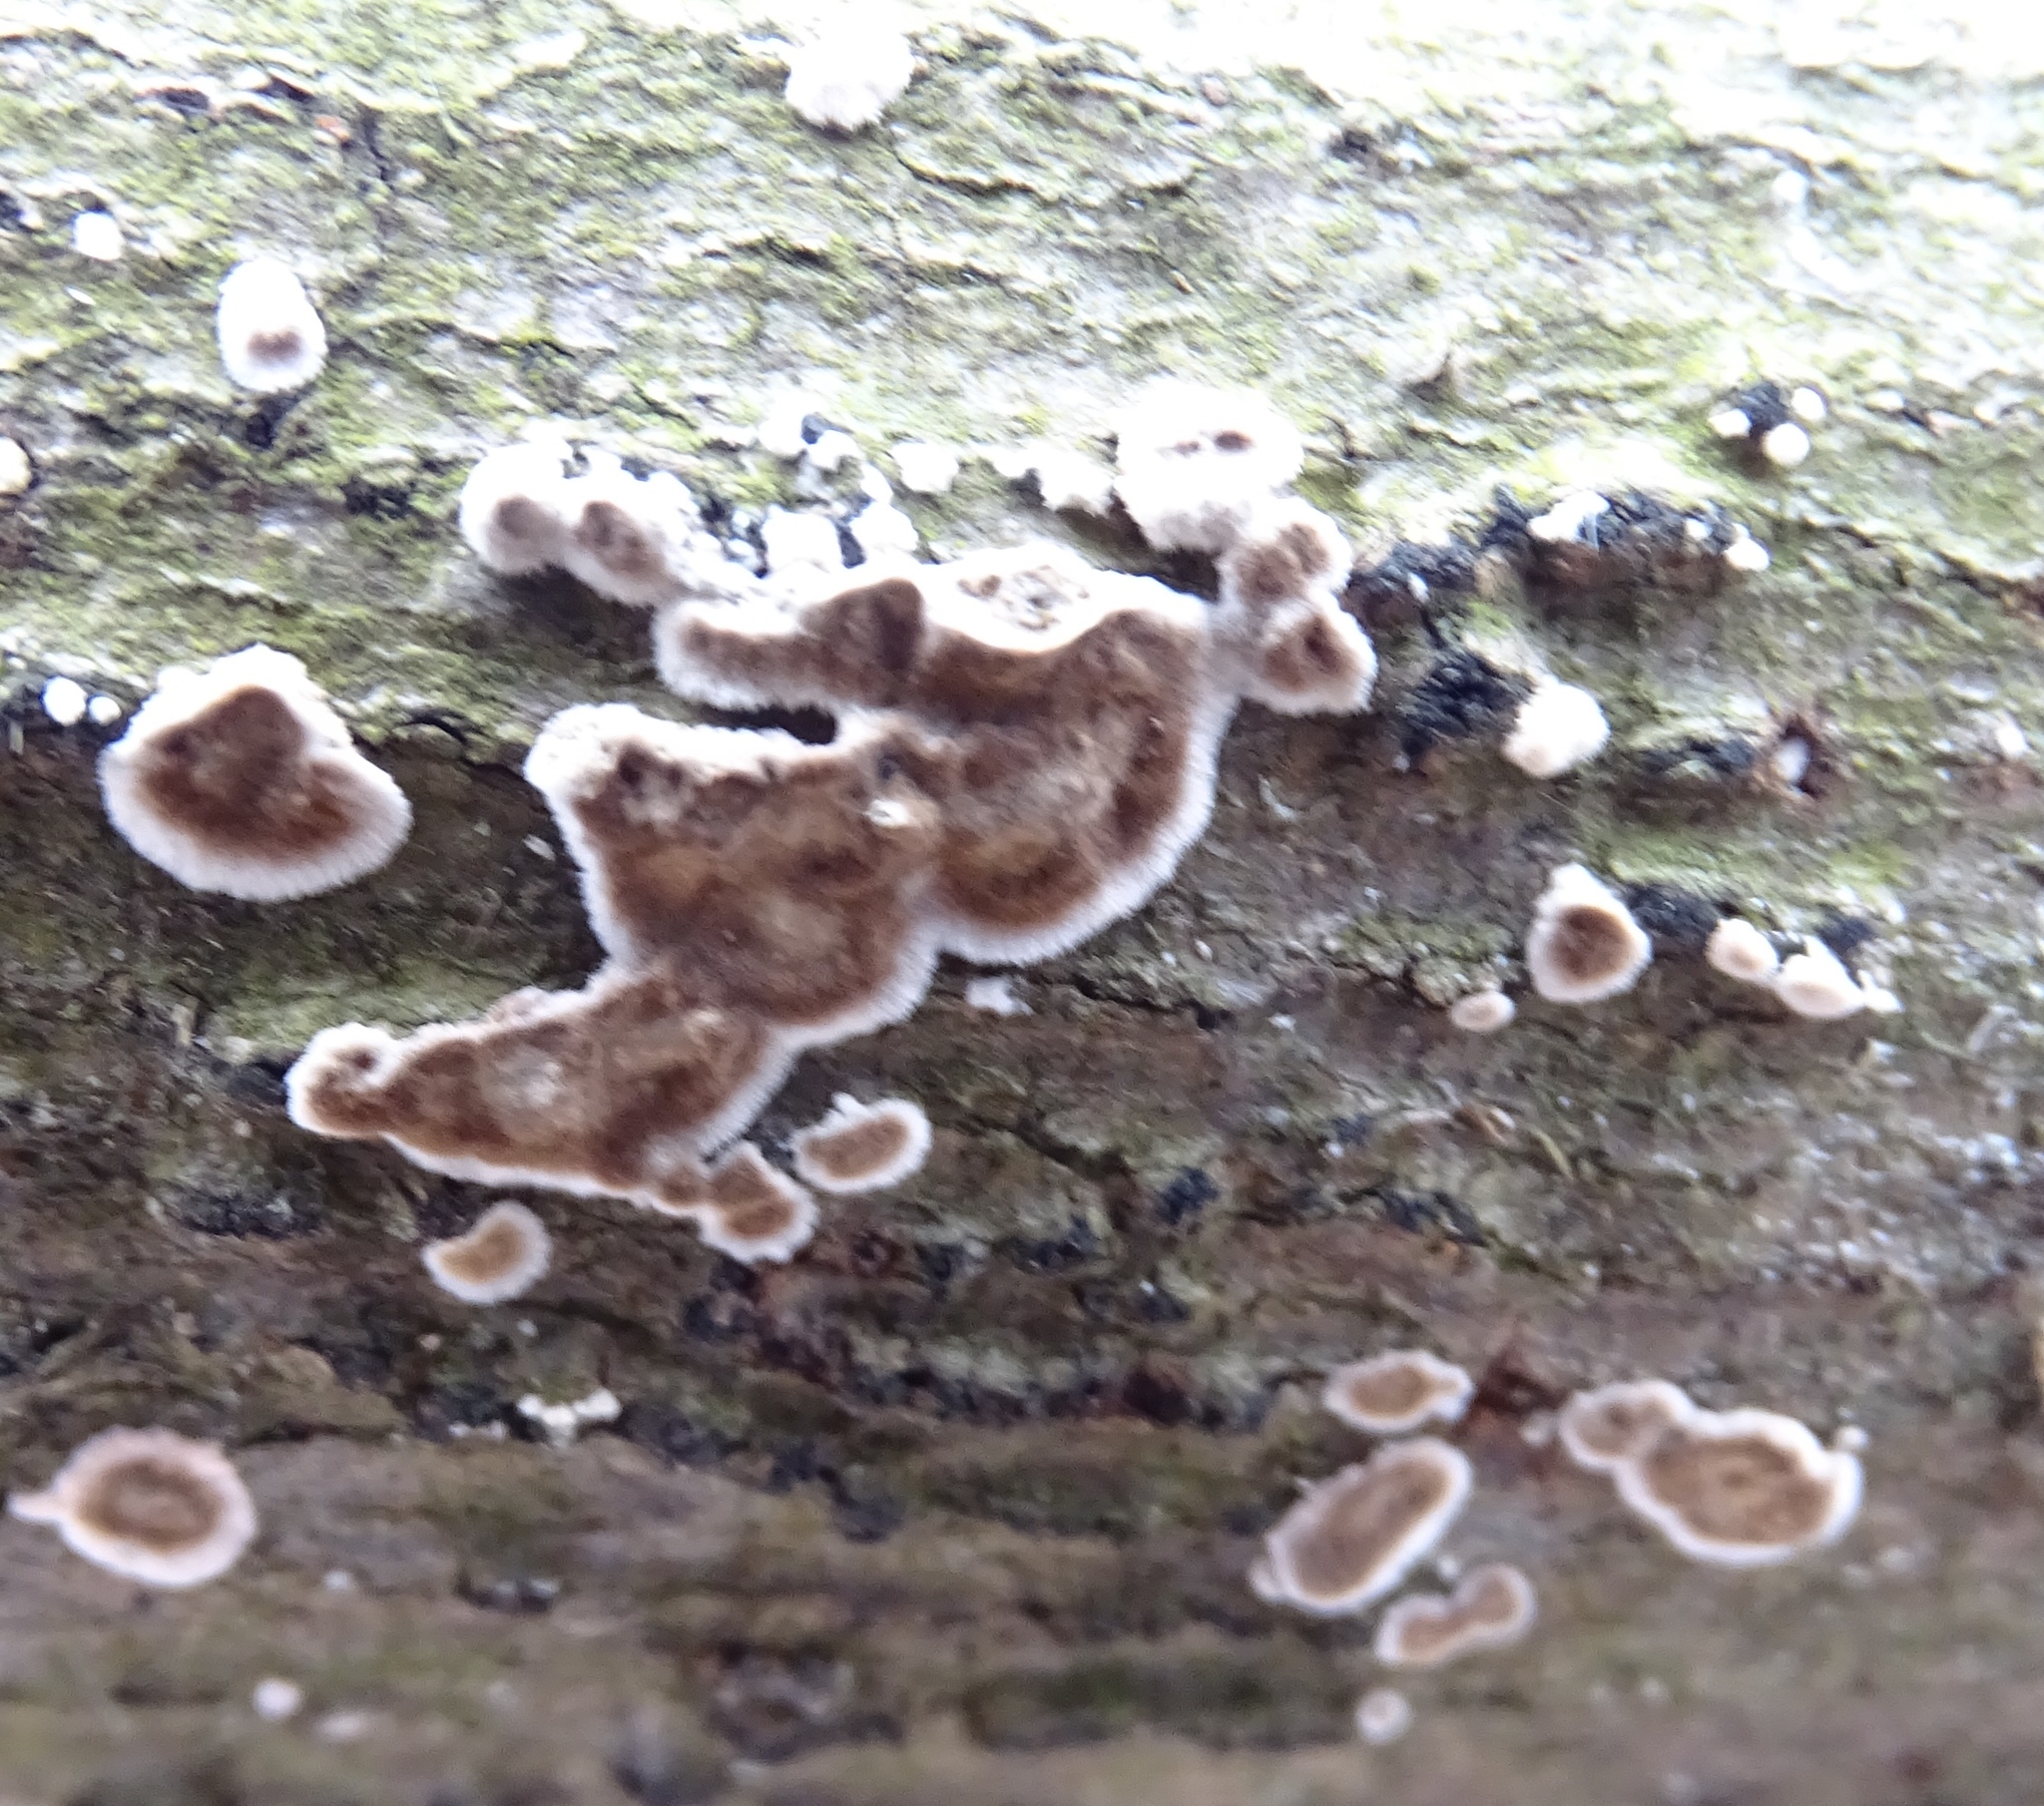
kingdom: Fungi
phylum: Basidiomycota
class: Agaricomycetes
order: Russulales
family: Peniophoraceae
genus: Peniophora
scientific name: Peniophora albobadia
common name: Giraffe spots
